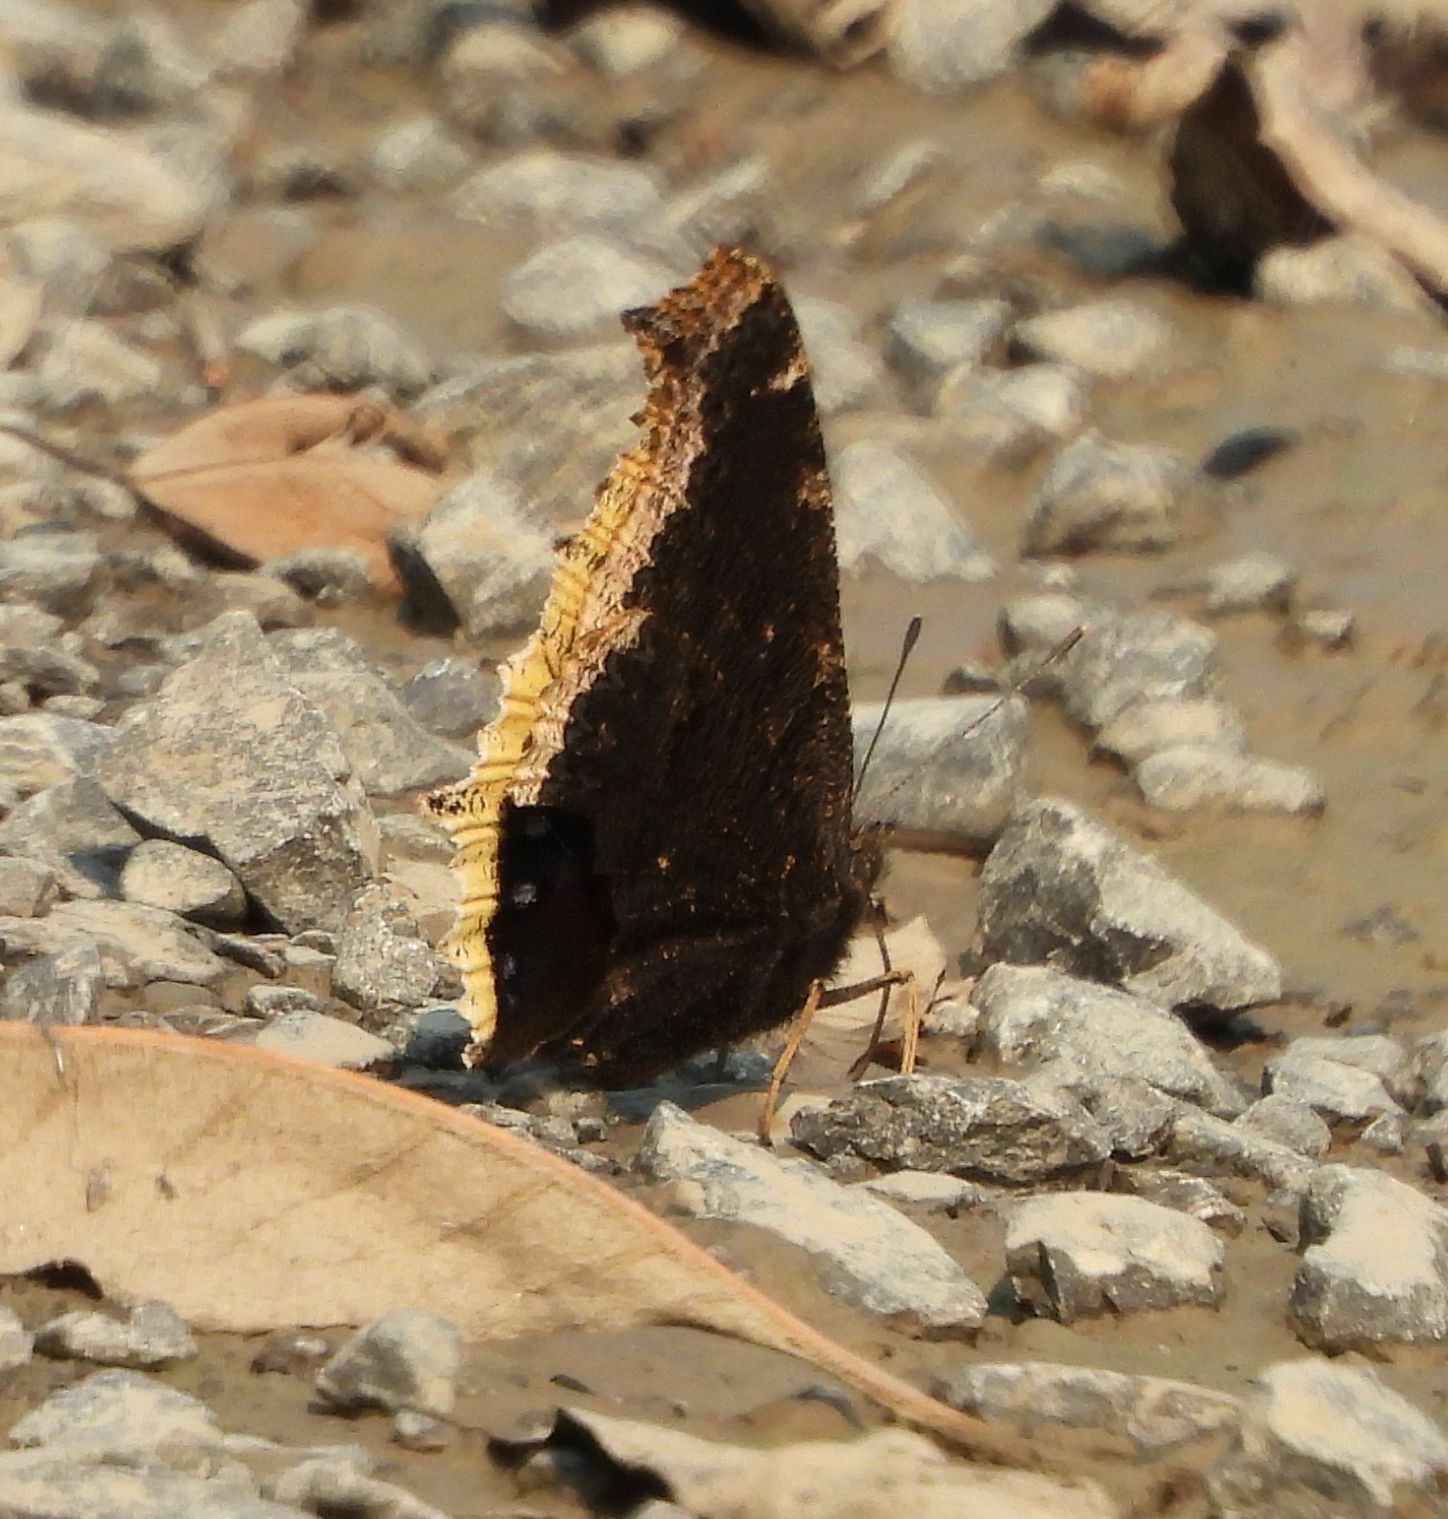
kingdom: Animalia
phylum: Arthropoda
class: Insecta
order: Lepidoptera
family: Nymphalidae
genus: Nymphalis
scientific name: Nymphalis antiopa
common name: Camberwell beauty
